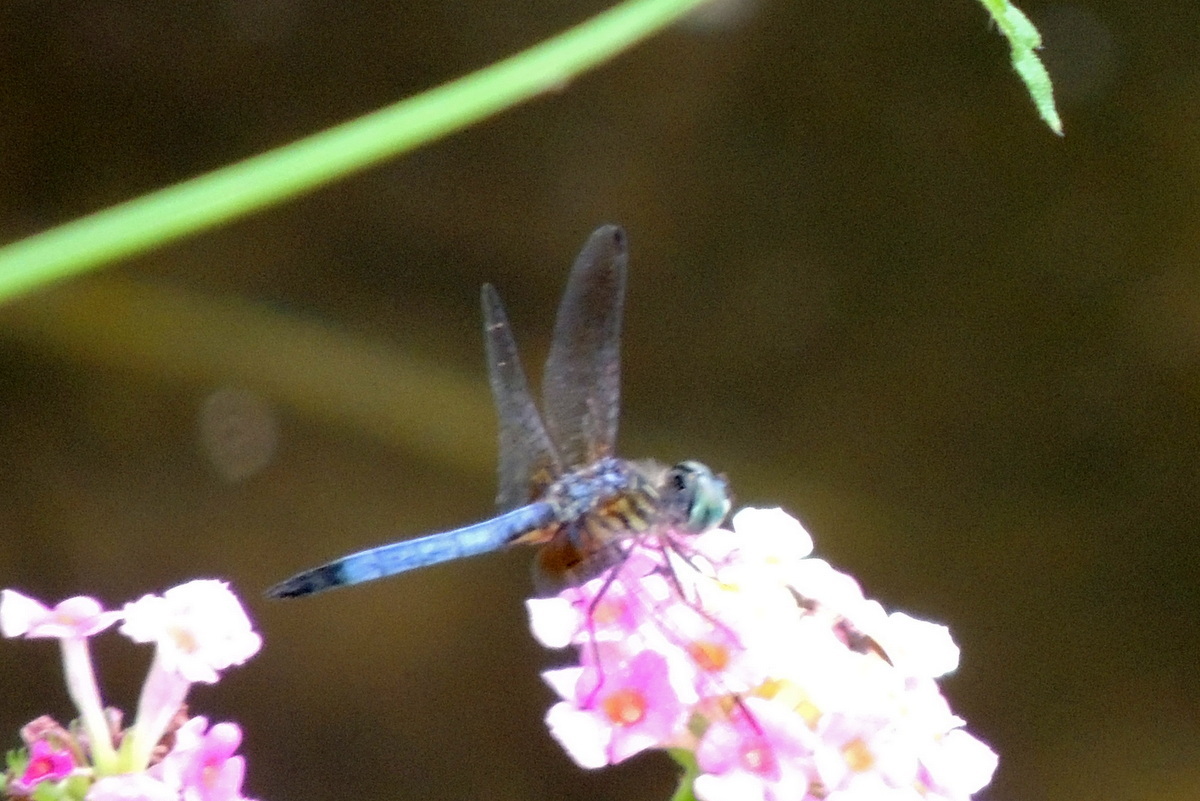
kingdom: Animalia
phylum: Arthropoda
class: Insecta
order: Odonata
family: Libellulidae
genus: Pachydiplax
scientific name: Pachydiplax longipennis
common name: Blue dasher
